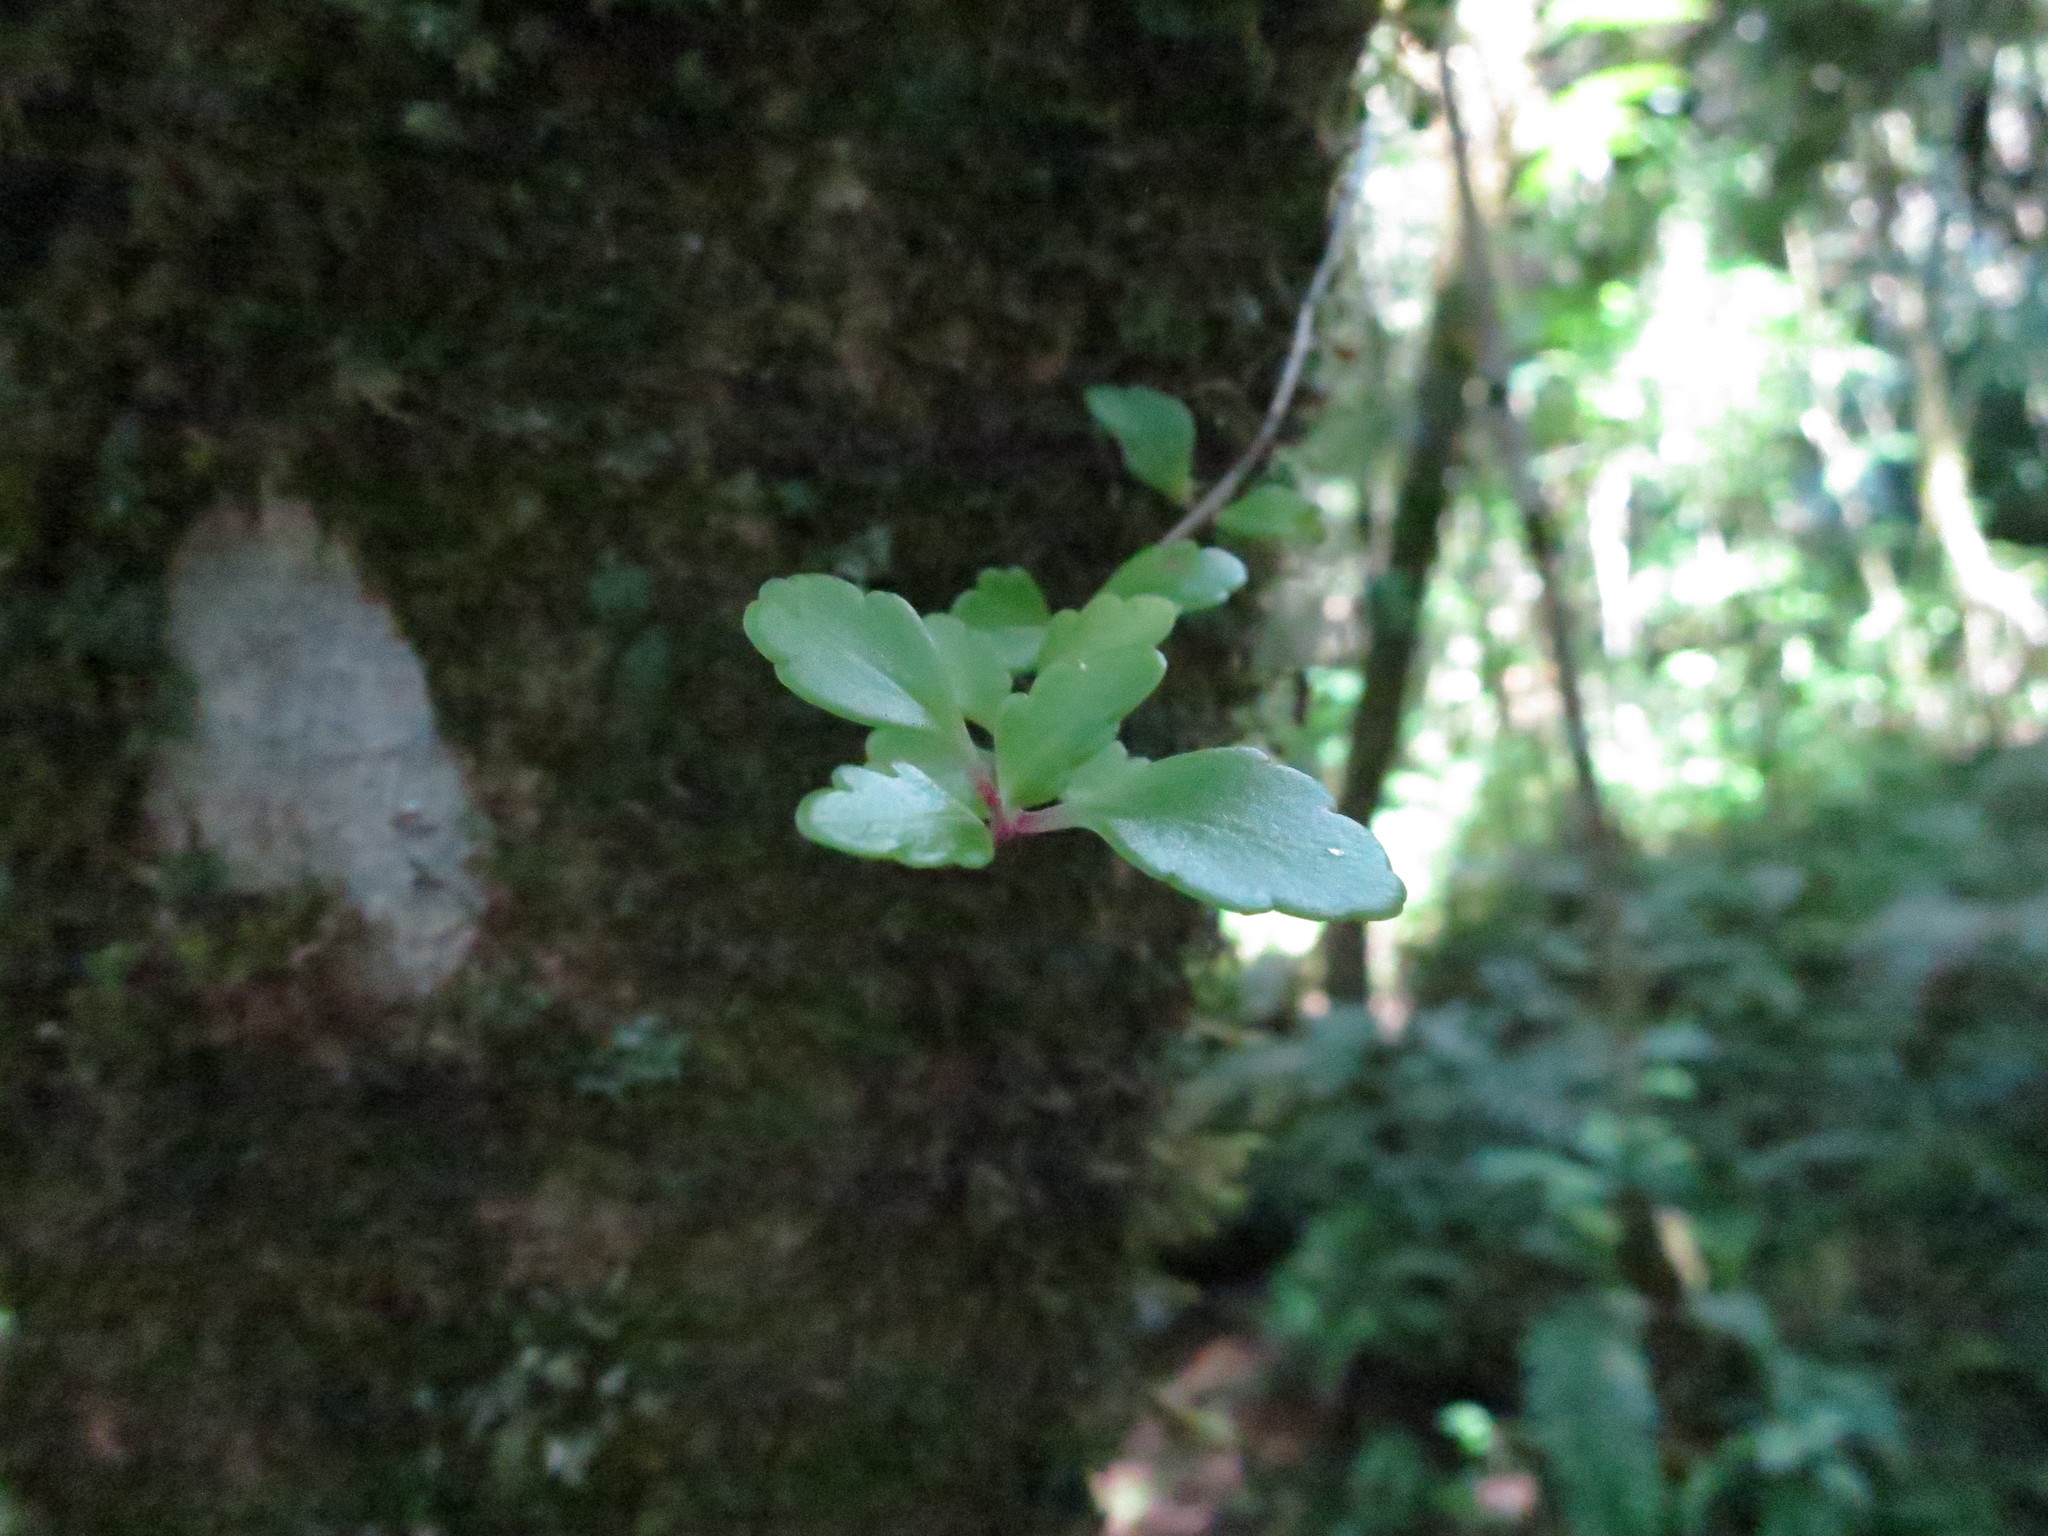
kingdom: Plantae
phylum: Tracheophyta
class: Magnoliopsida
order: Saxifragales
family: Crassulaceae
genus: Kalanchoe
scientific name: Kalanchoe gracilipes
